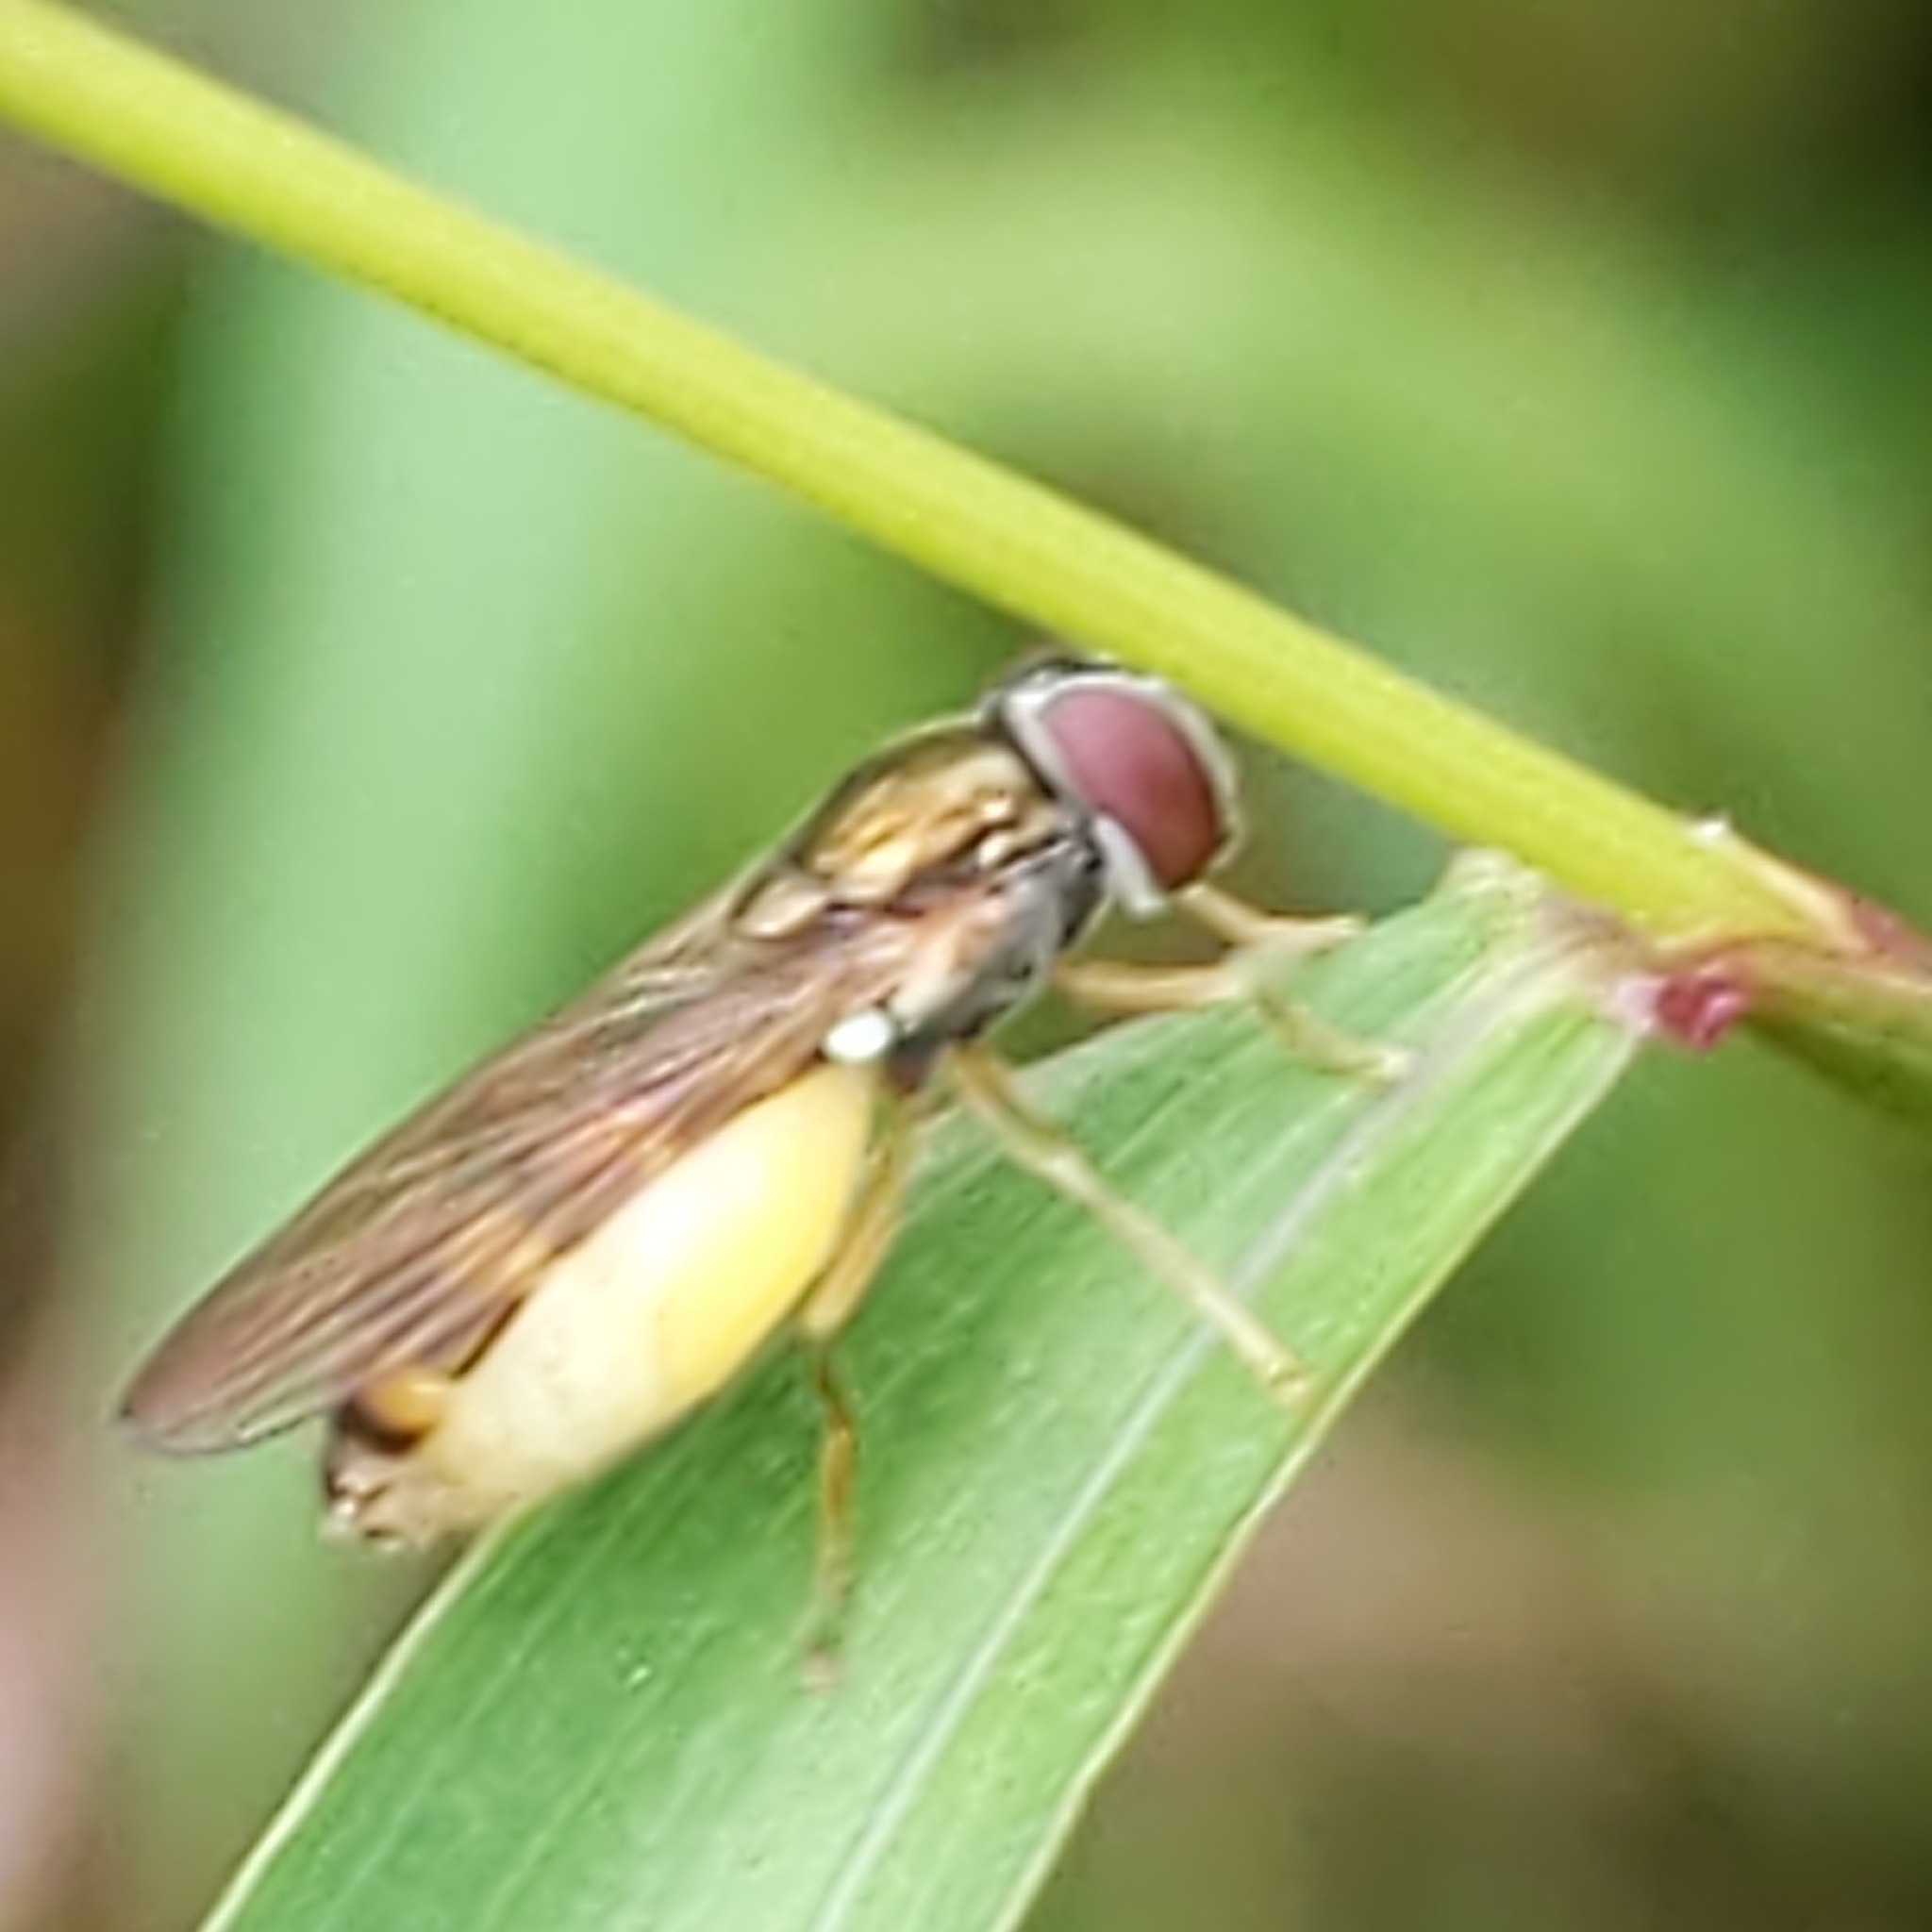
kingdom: Animalia
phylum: Arthropoda
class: Insecta
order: Diptera
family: Syrphidae
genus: Melanostoma
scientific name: Melanostoma mellina
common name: Hover fly
